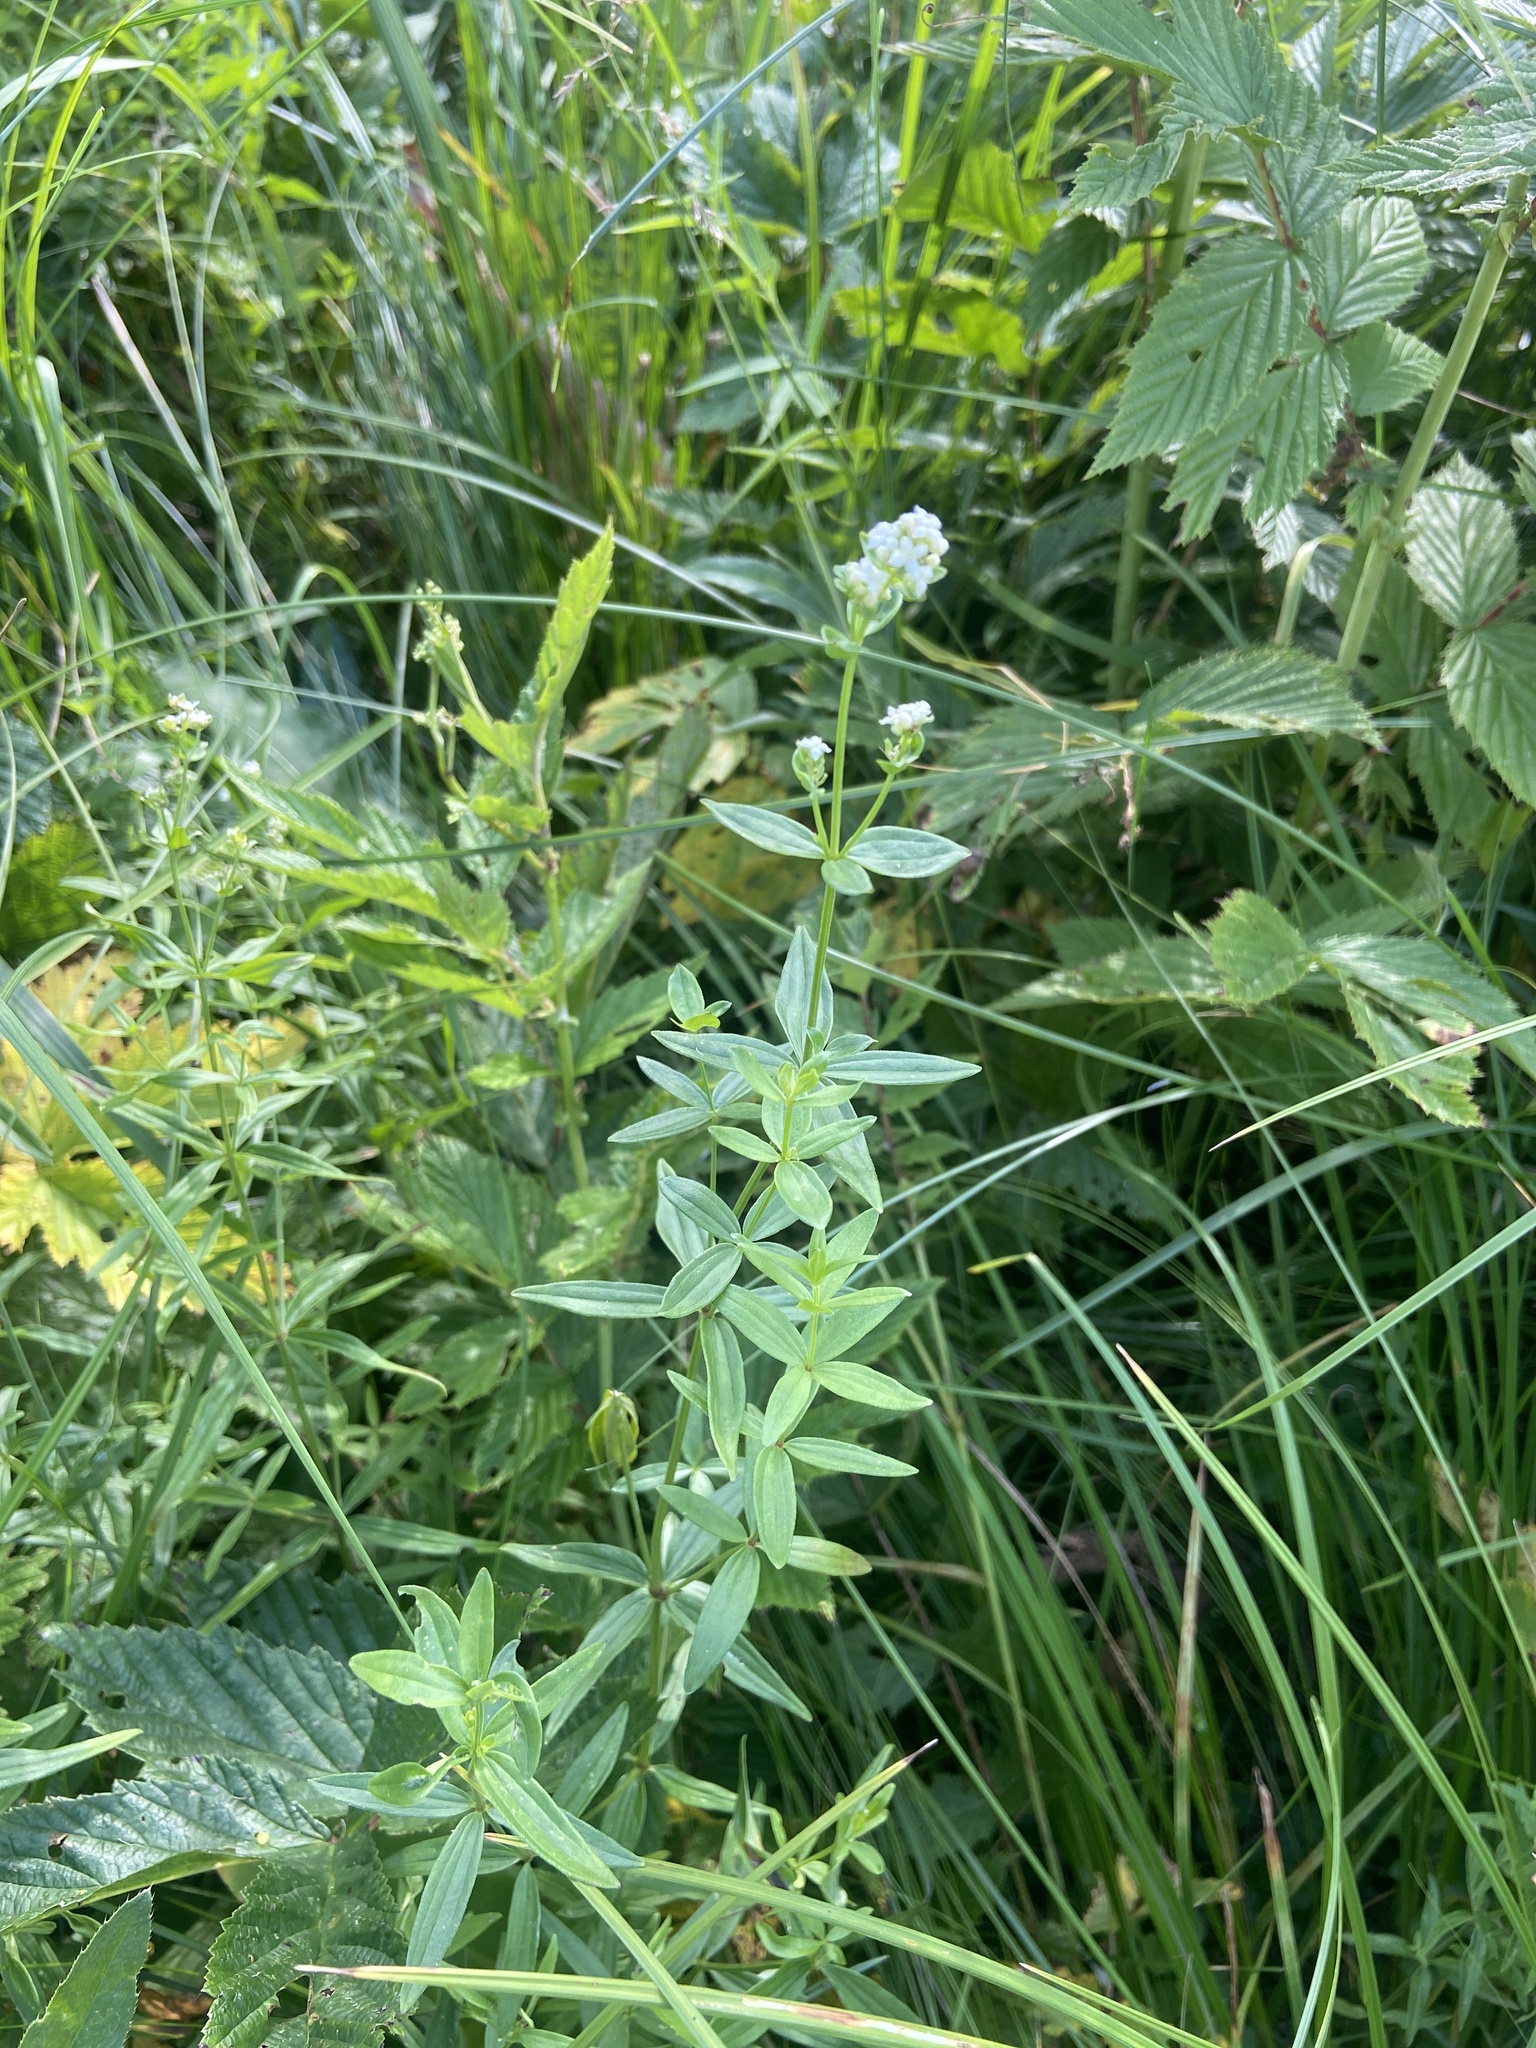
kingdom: Plantae
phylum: Tracheophyta
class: Magnoliopsida
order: Gentianales
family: Rubiaceae
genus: Galium
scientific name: Galium boreale
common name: Northern bedstraw
